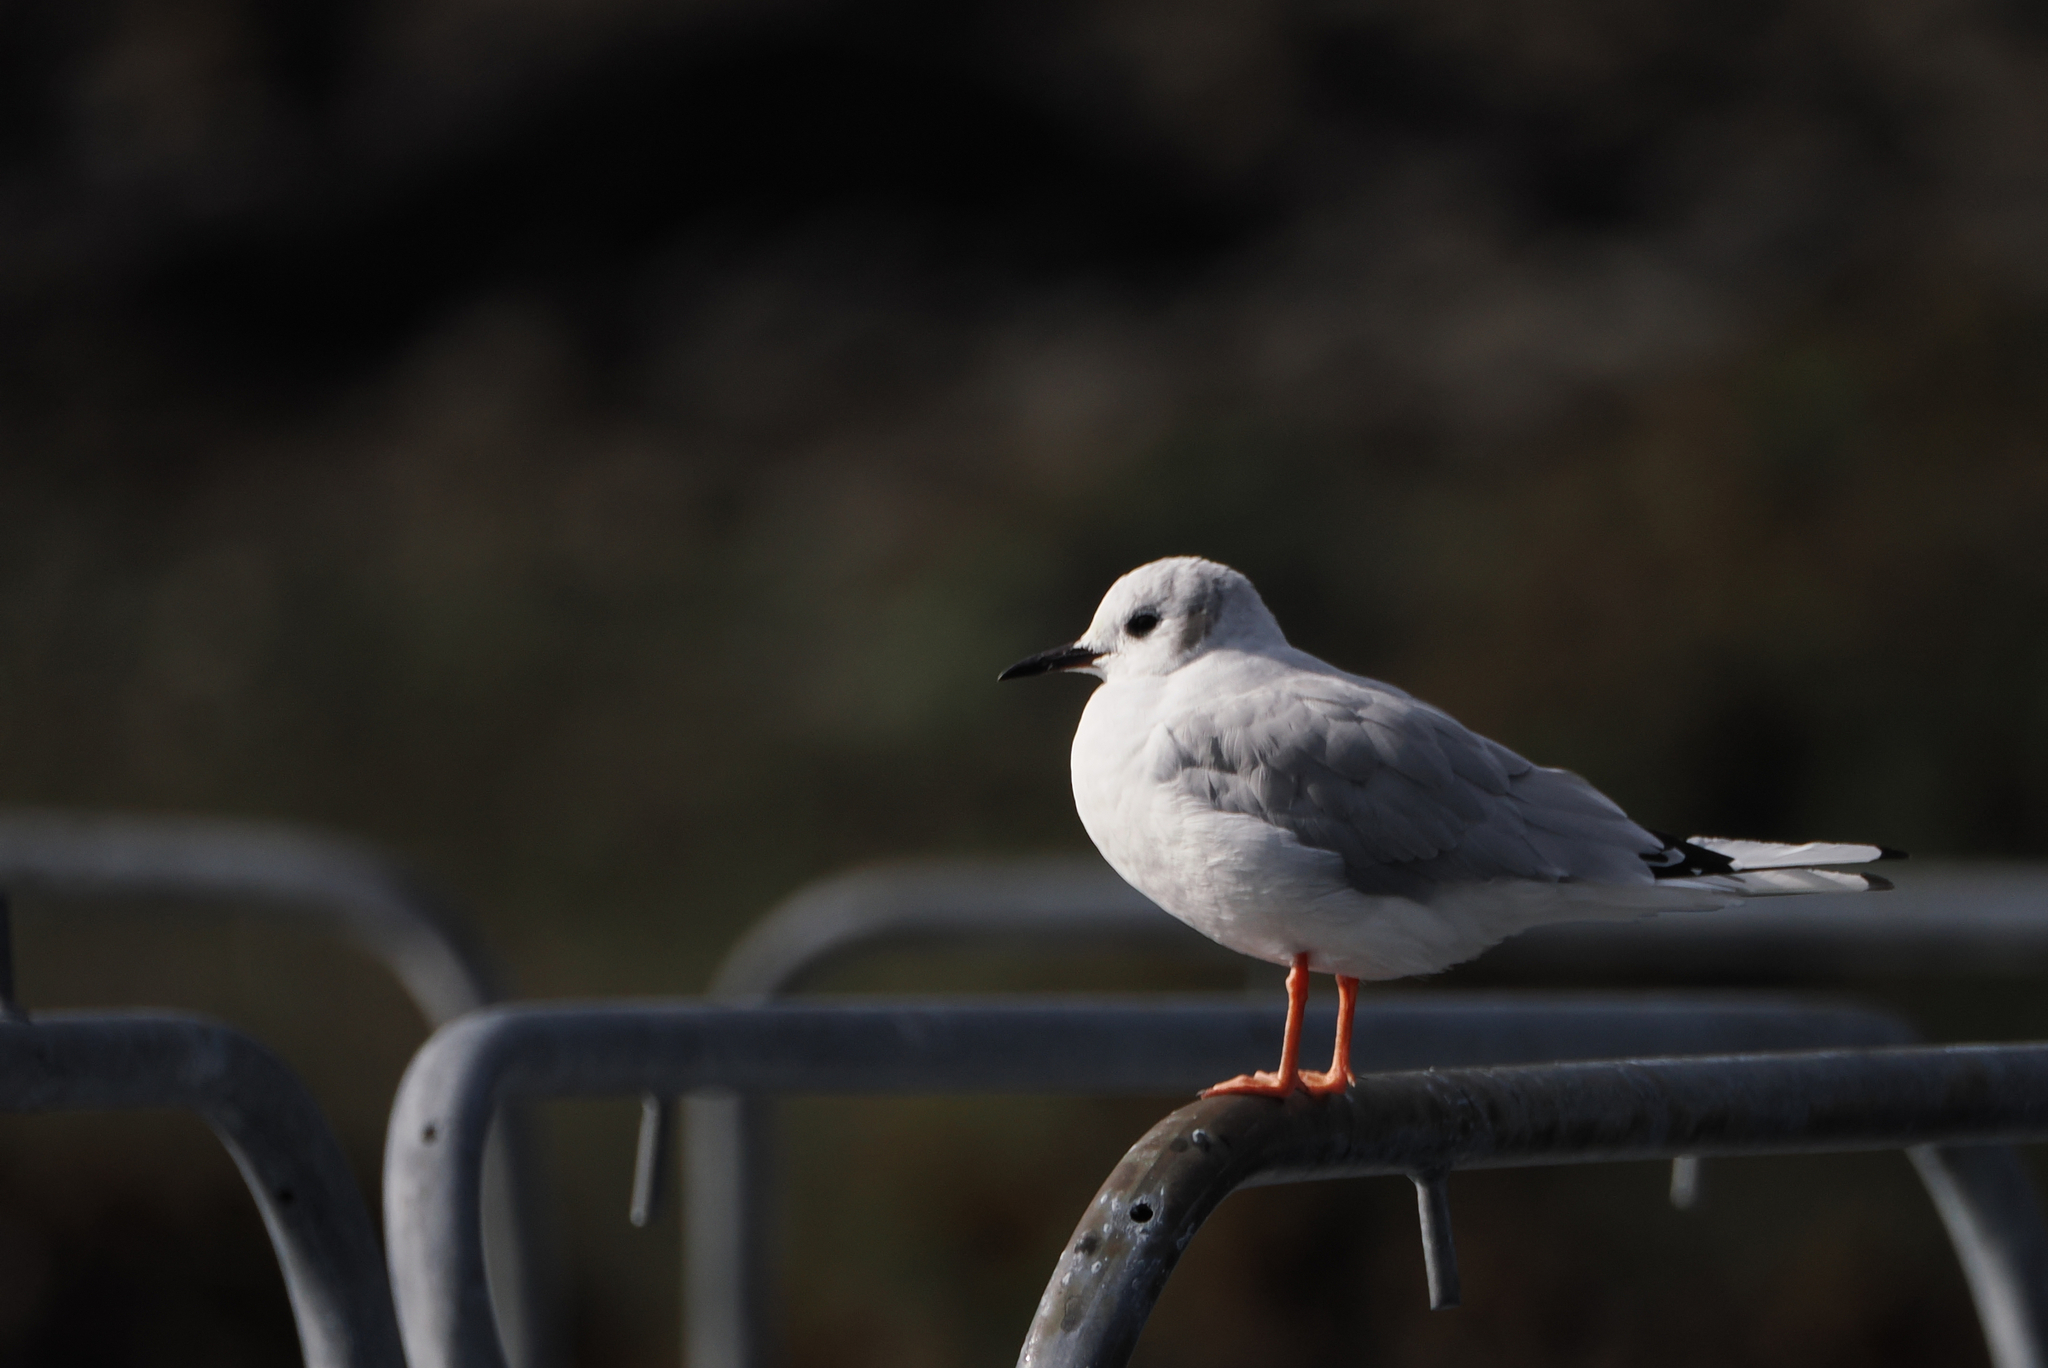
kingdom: Animalia
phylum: Chordata
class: Aves
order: Charadriiformes
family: Laridae
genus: Chroicocephalus
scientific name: Chroicocephalus philadelphia
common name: Bonaparte's gull
